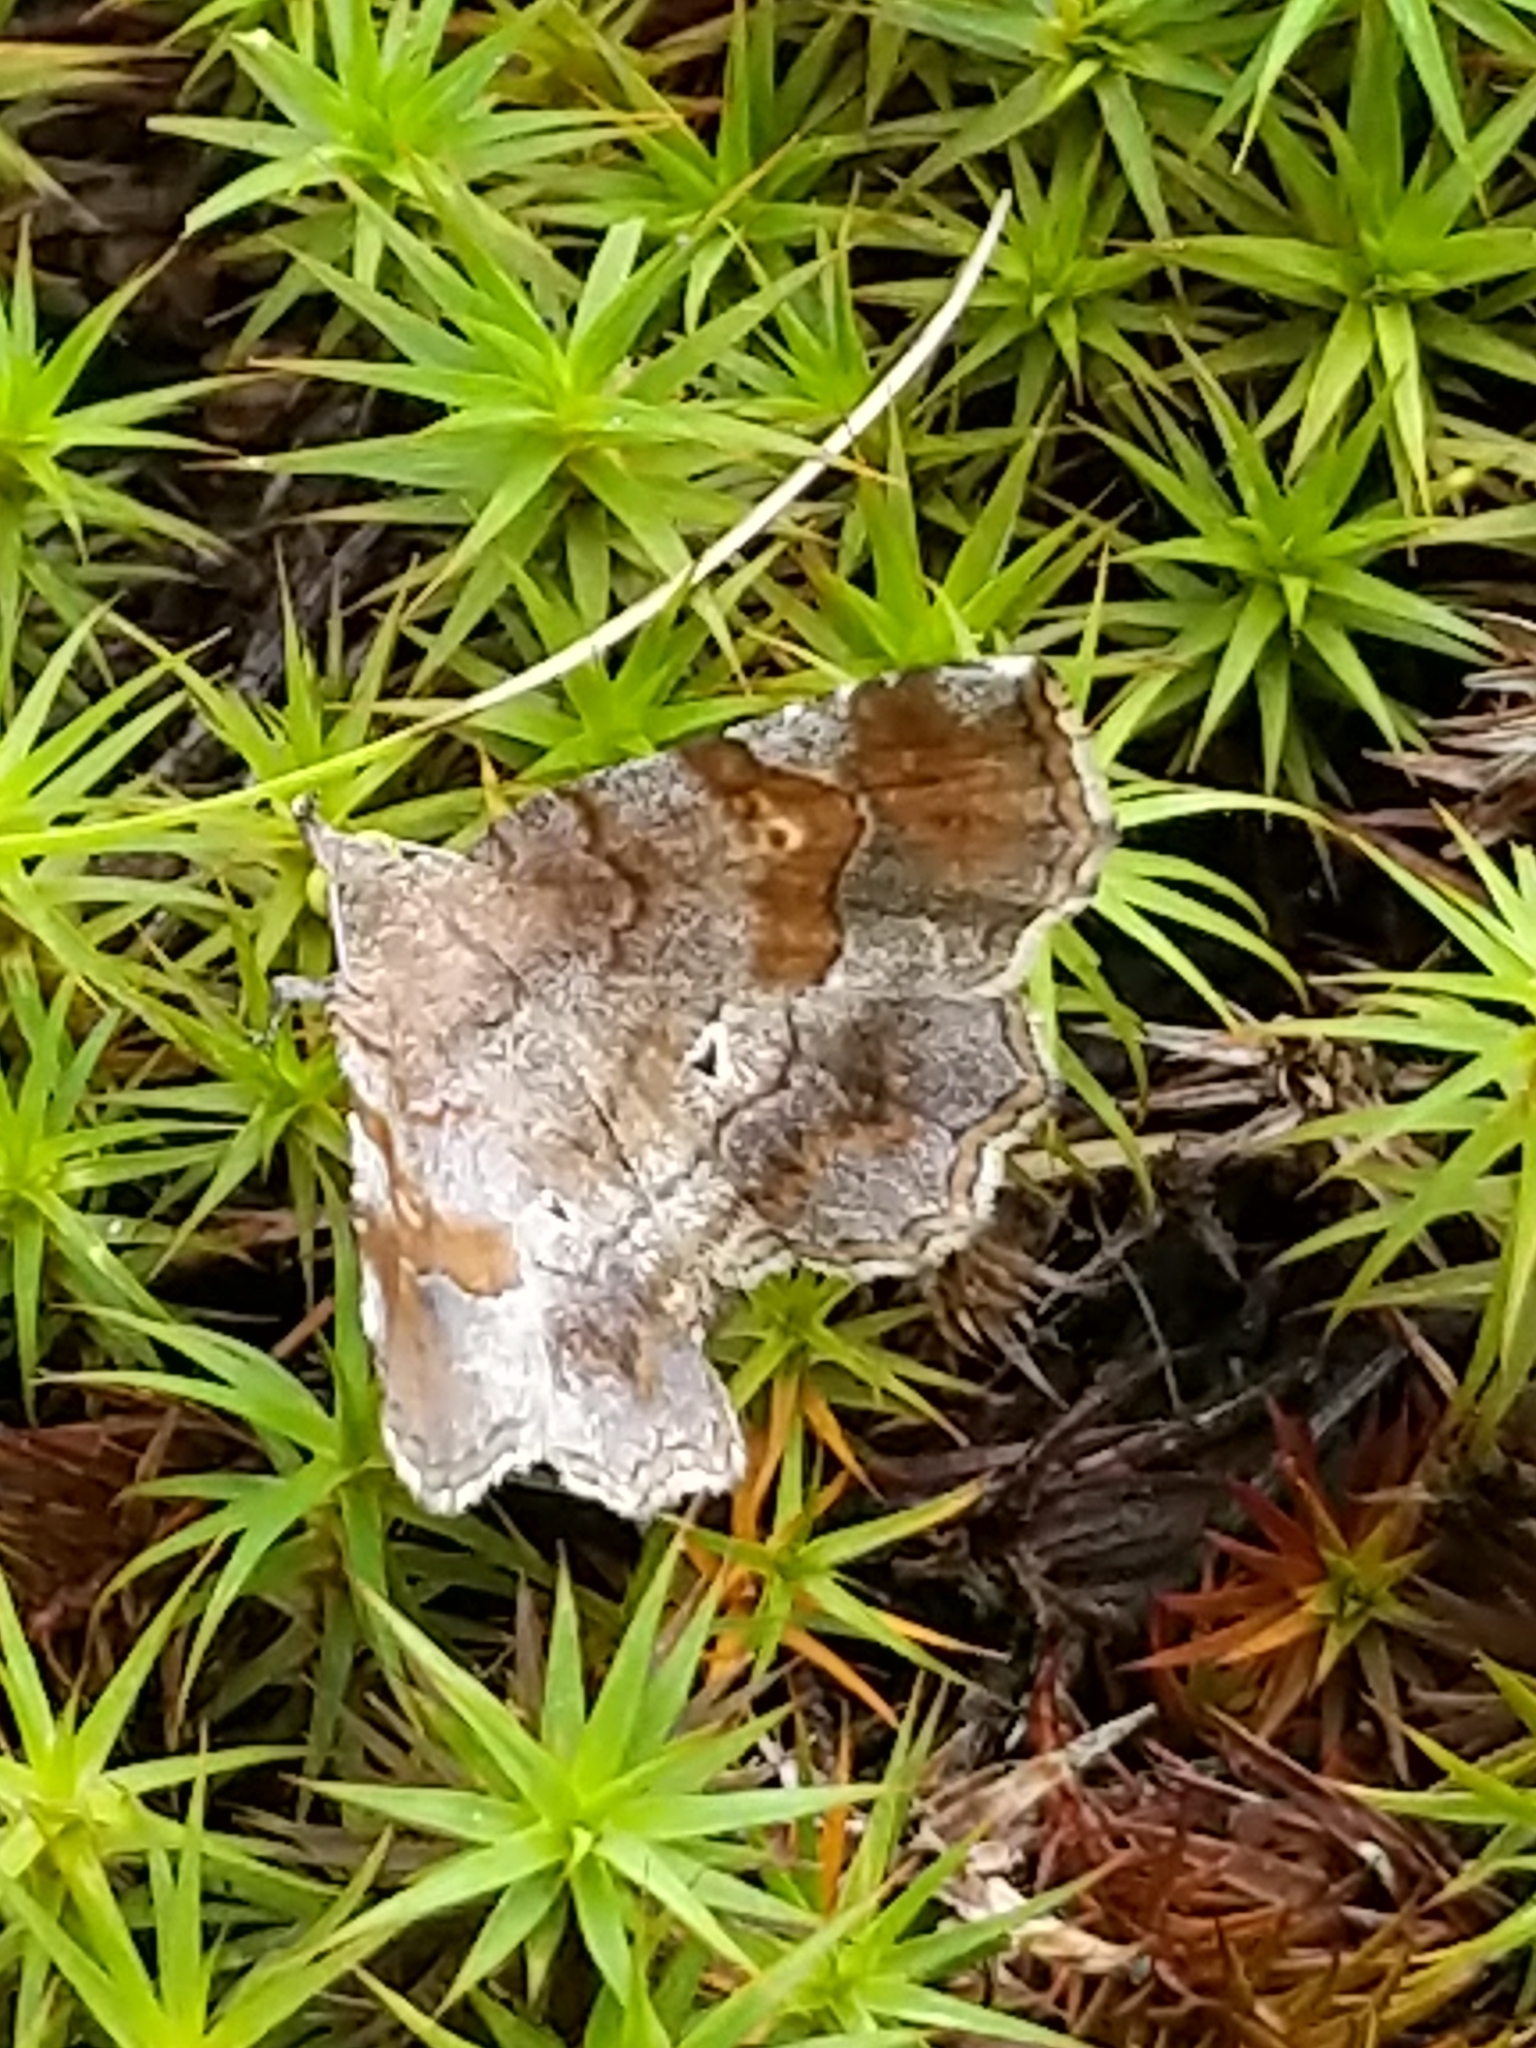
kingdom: Animalia
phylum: Arthropoda
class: Insecta
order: Lepidoptera
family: Erebidae
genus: Pangrapta
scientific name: Pangrapta decoralis
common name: Decorated owlet
